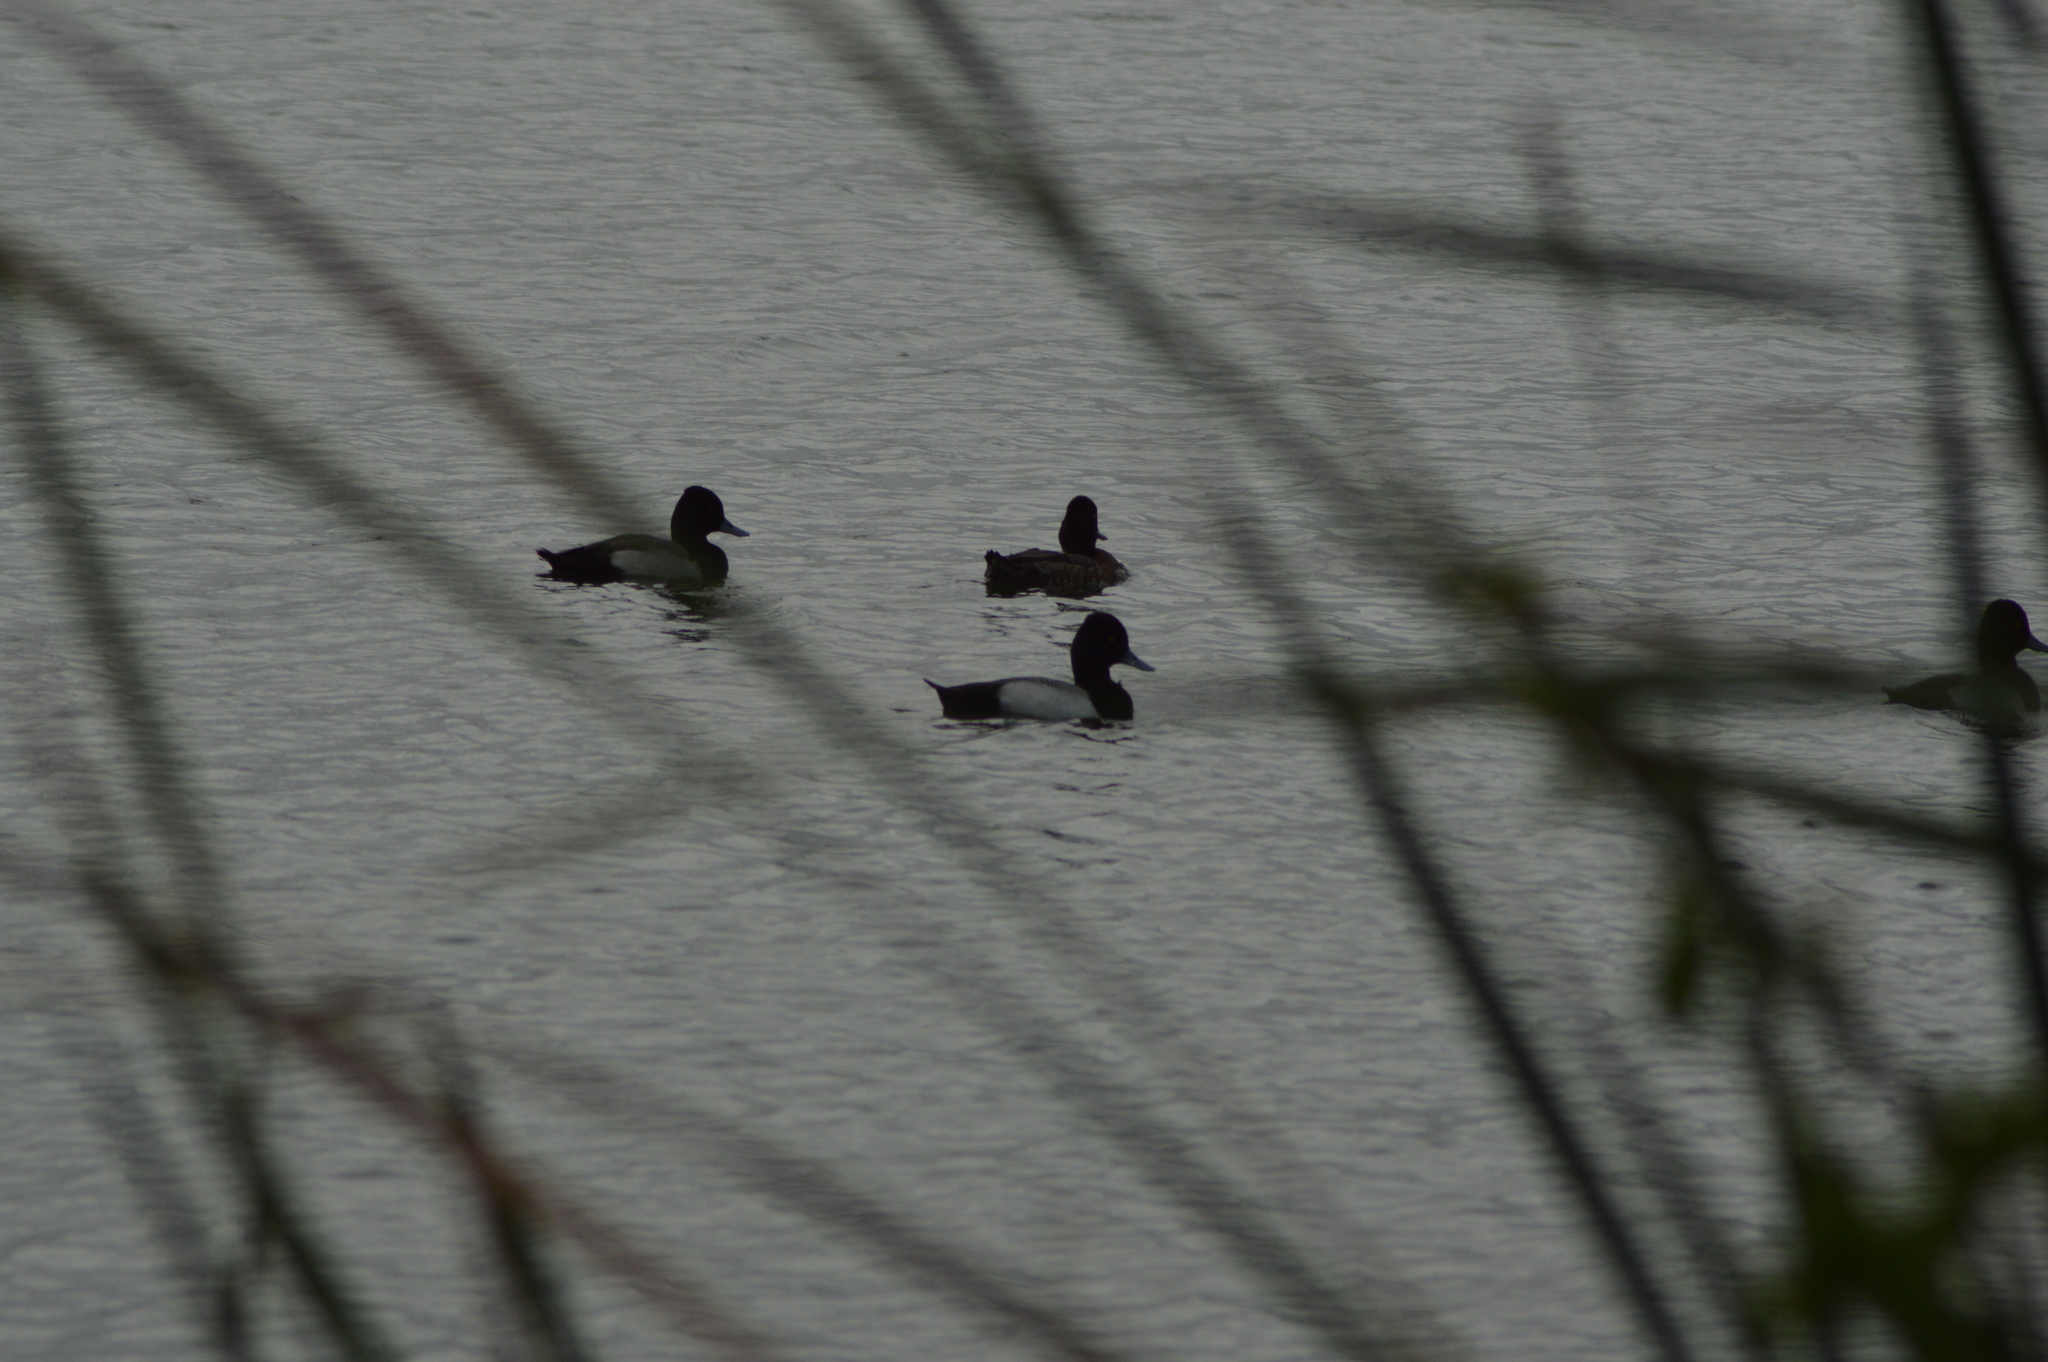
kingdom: Animalia
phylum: Chordata
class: Aves
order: Anseriformes
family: Anatidae
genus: Aythya
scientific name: Aythya affinis
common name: Lesser scaup
